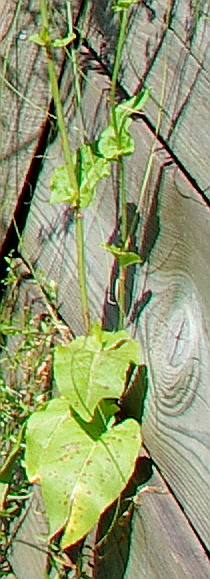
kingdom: Plantae
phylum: Tracheophyta
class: Magnoliopsida
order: Caryophyllales
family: Polygonaceae
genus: Rumex
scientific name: Rumex thyrsiflorus
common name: Garden sorrel
